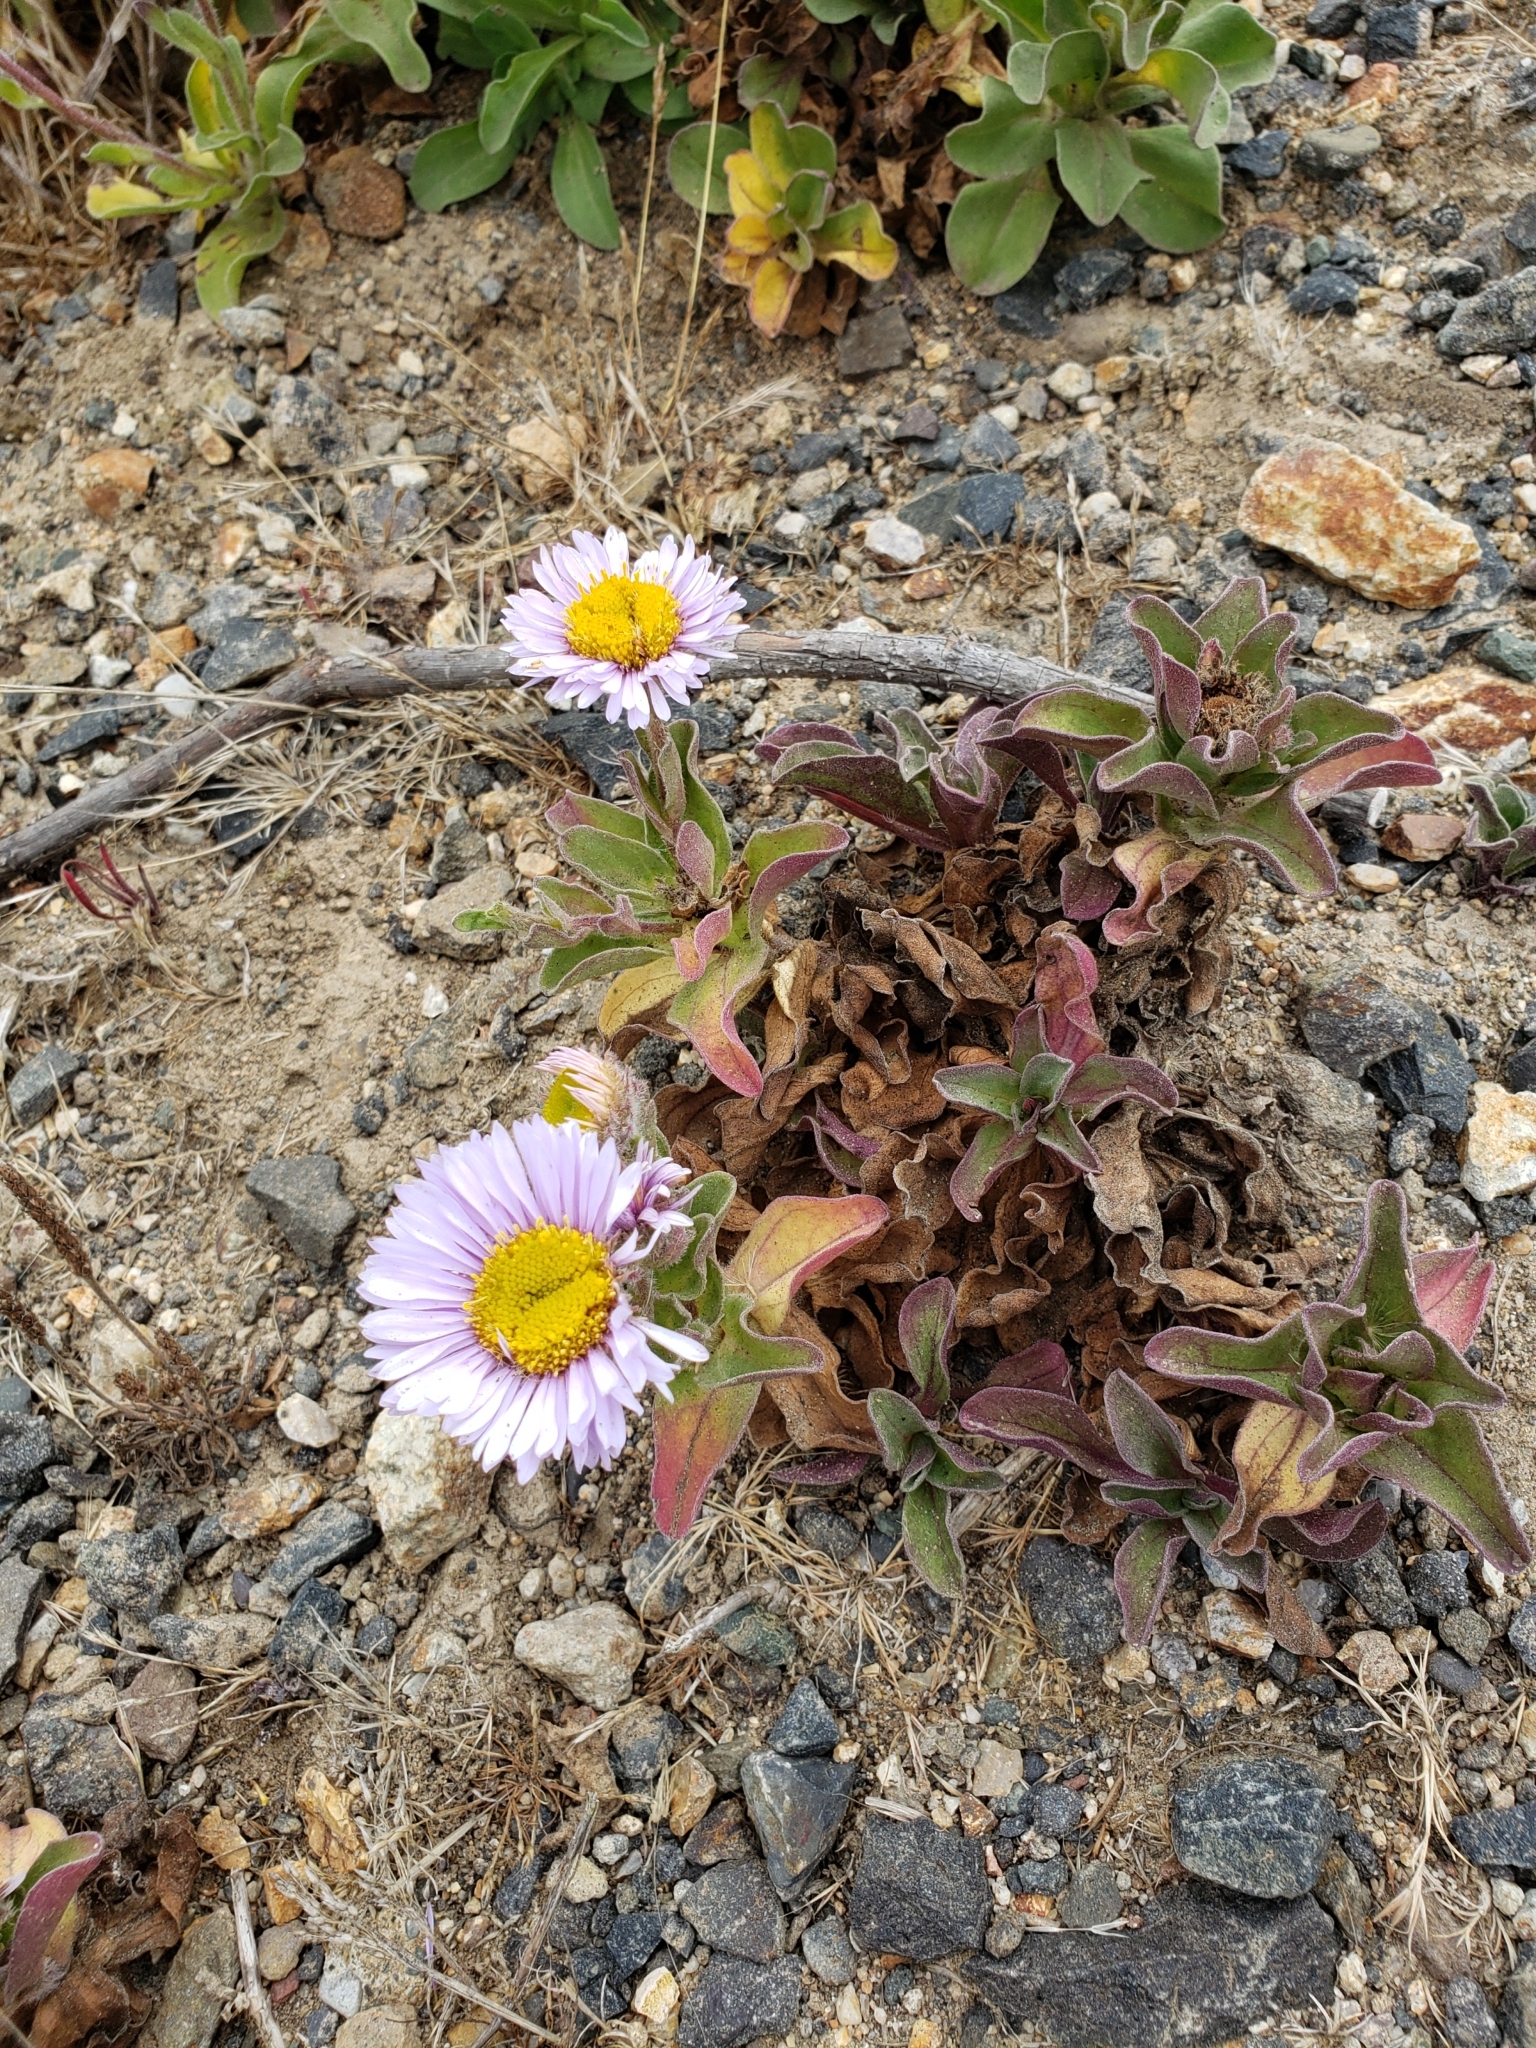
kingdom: Plantae
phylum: Tracheophyta
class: Magnoliopsida
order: Asterales
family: Asteraceae
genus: Erigeron
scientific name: Erigeron glaucus
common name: Seaside daisy
